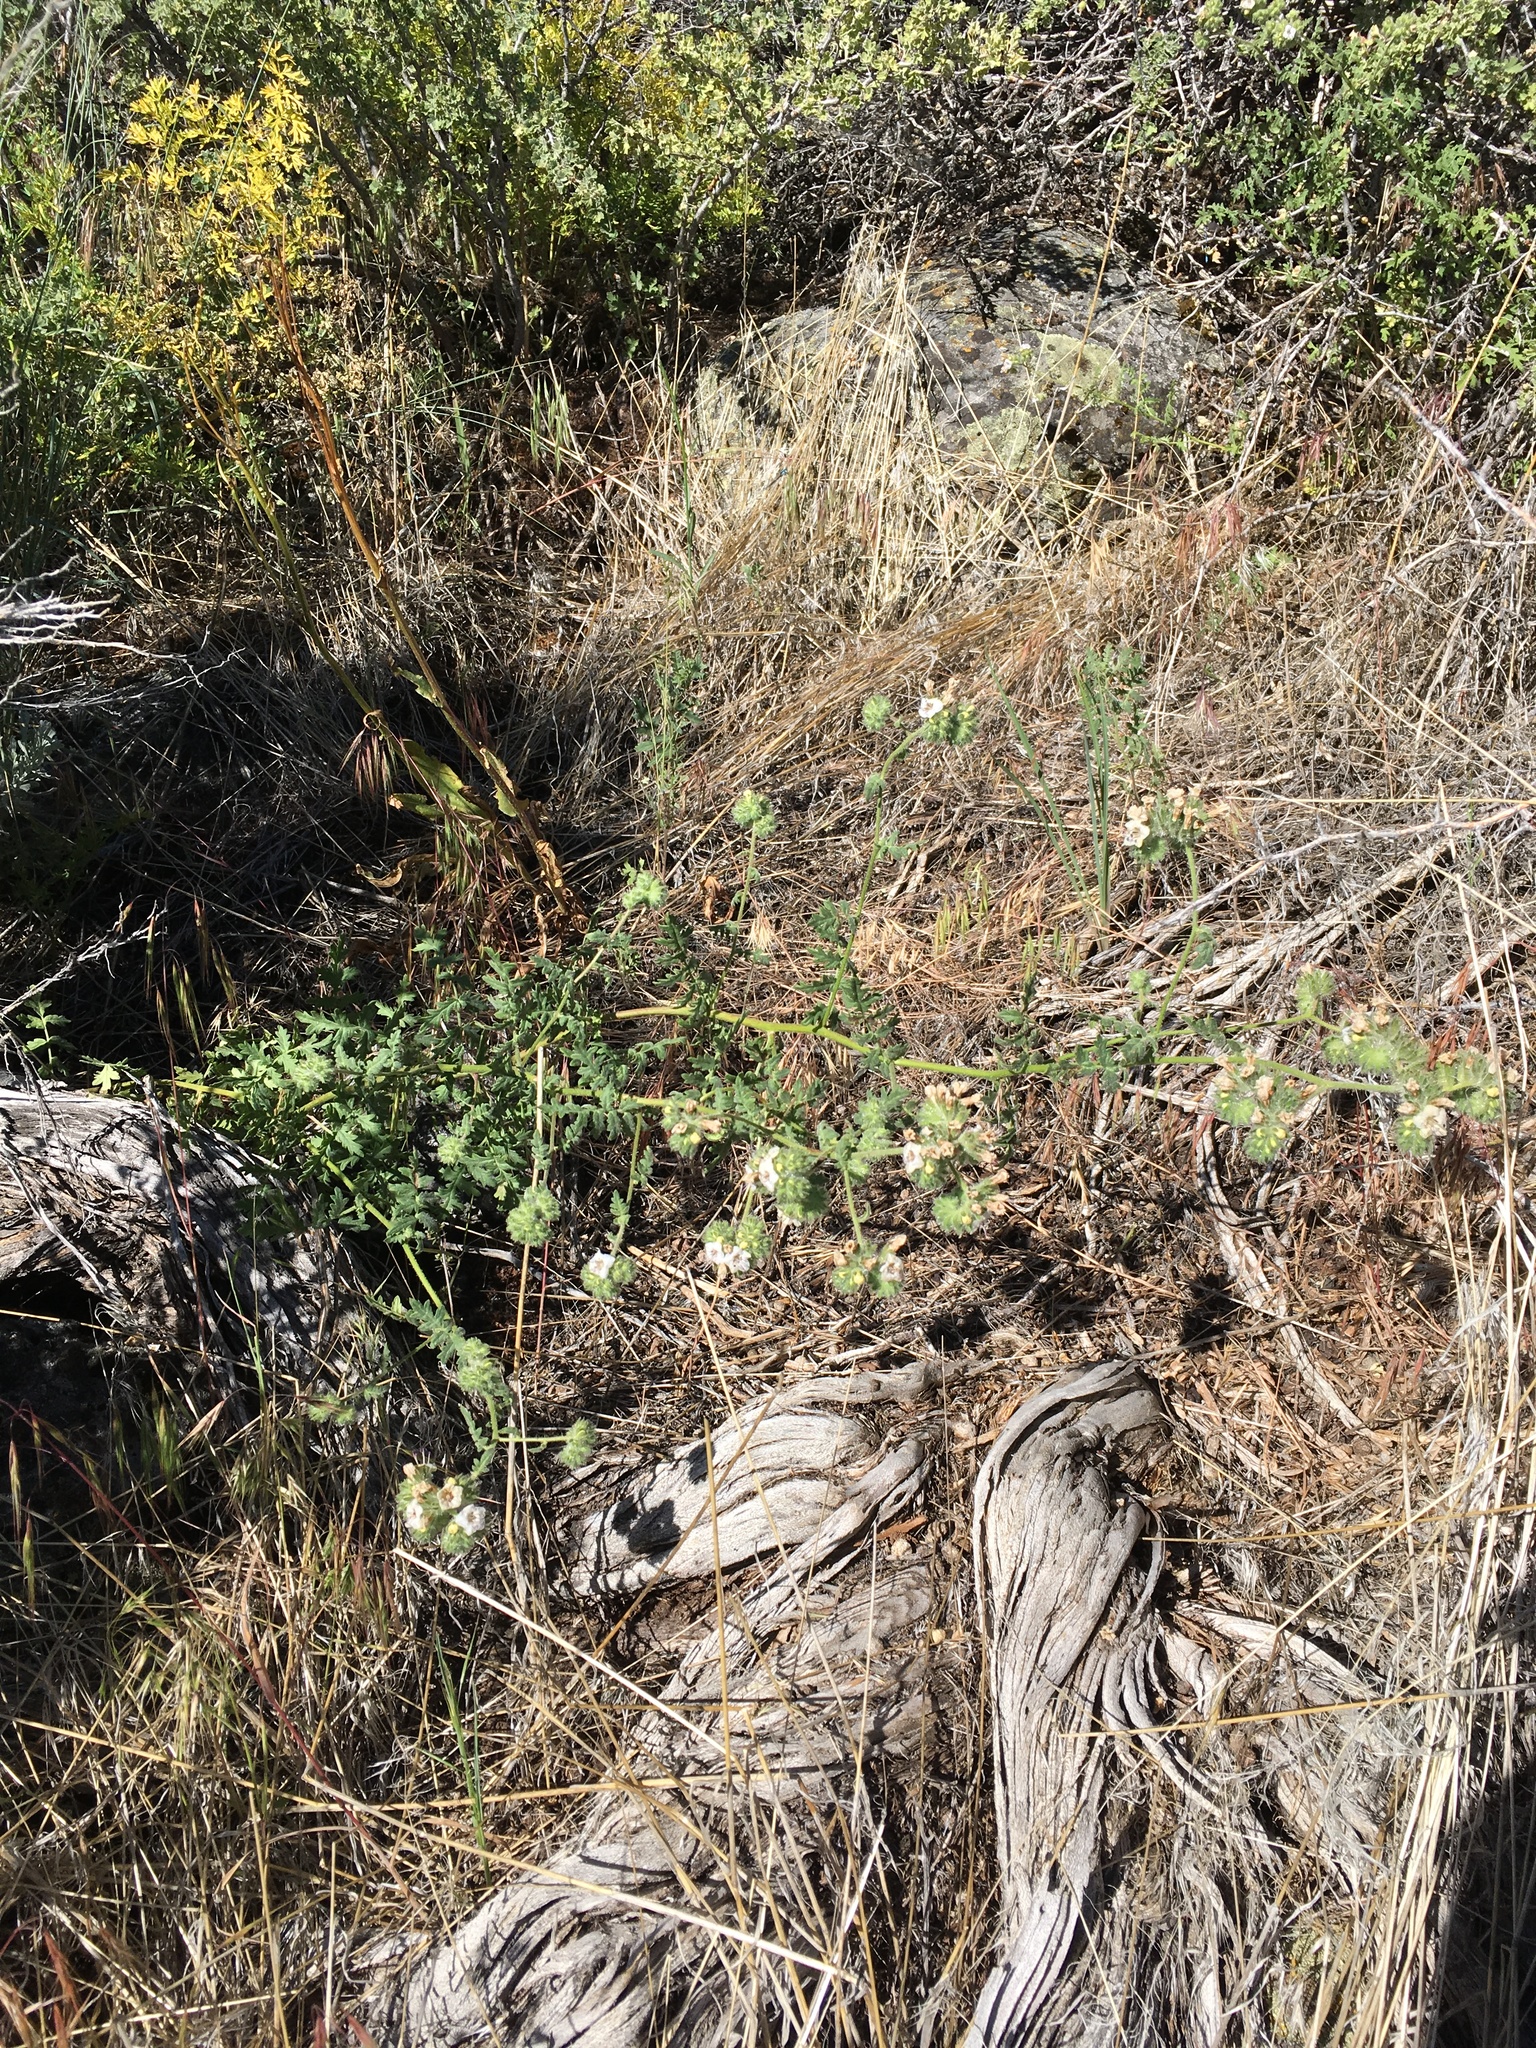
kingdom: Plantae
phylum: Tracheophyta
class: Magnoliopsida
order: Boraginales
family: Hydrophyllaceae
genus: Phacelia
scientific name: Phacelia ramosissima
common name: Branching phacelia
